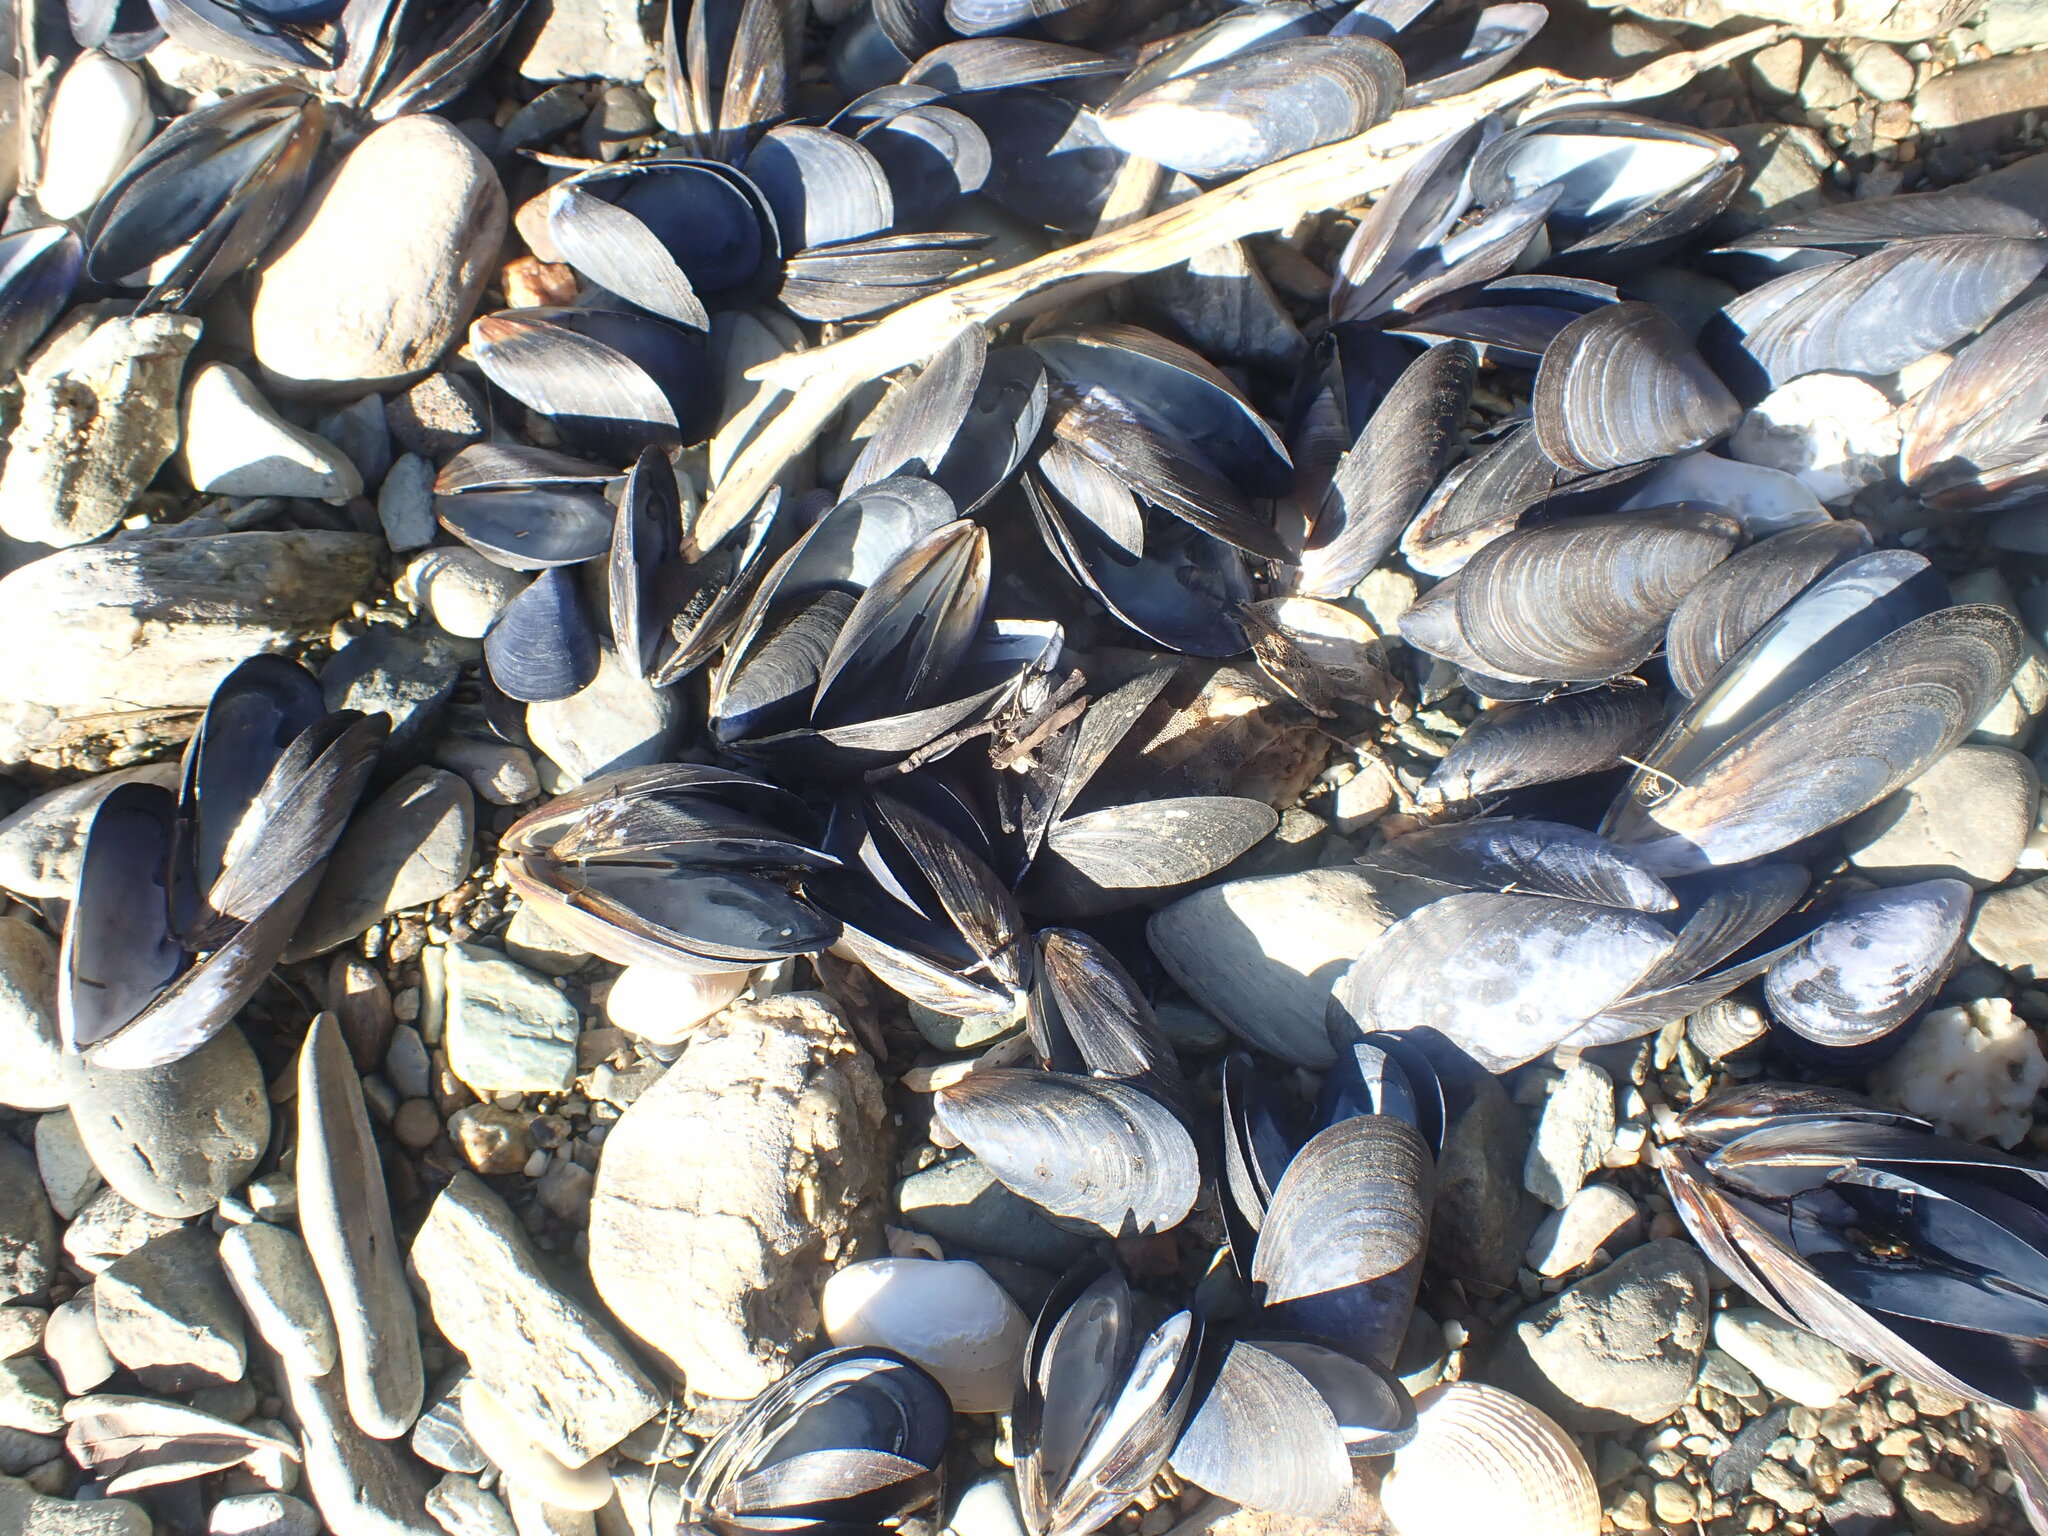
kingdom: Animalia
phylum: Mollusca
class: Bivalvia
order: Mytilida
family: Mytilidae
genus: Mytilus
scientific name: Mytilus planulatus
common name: Australian mussel
